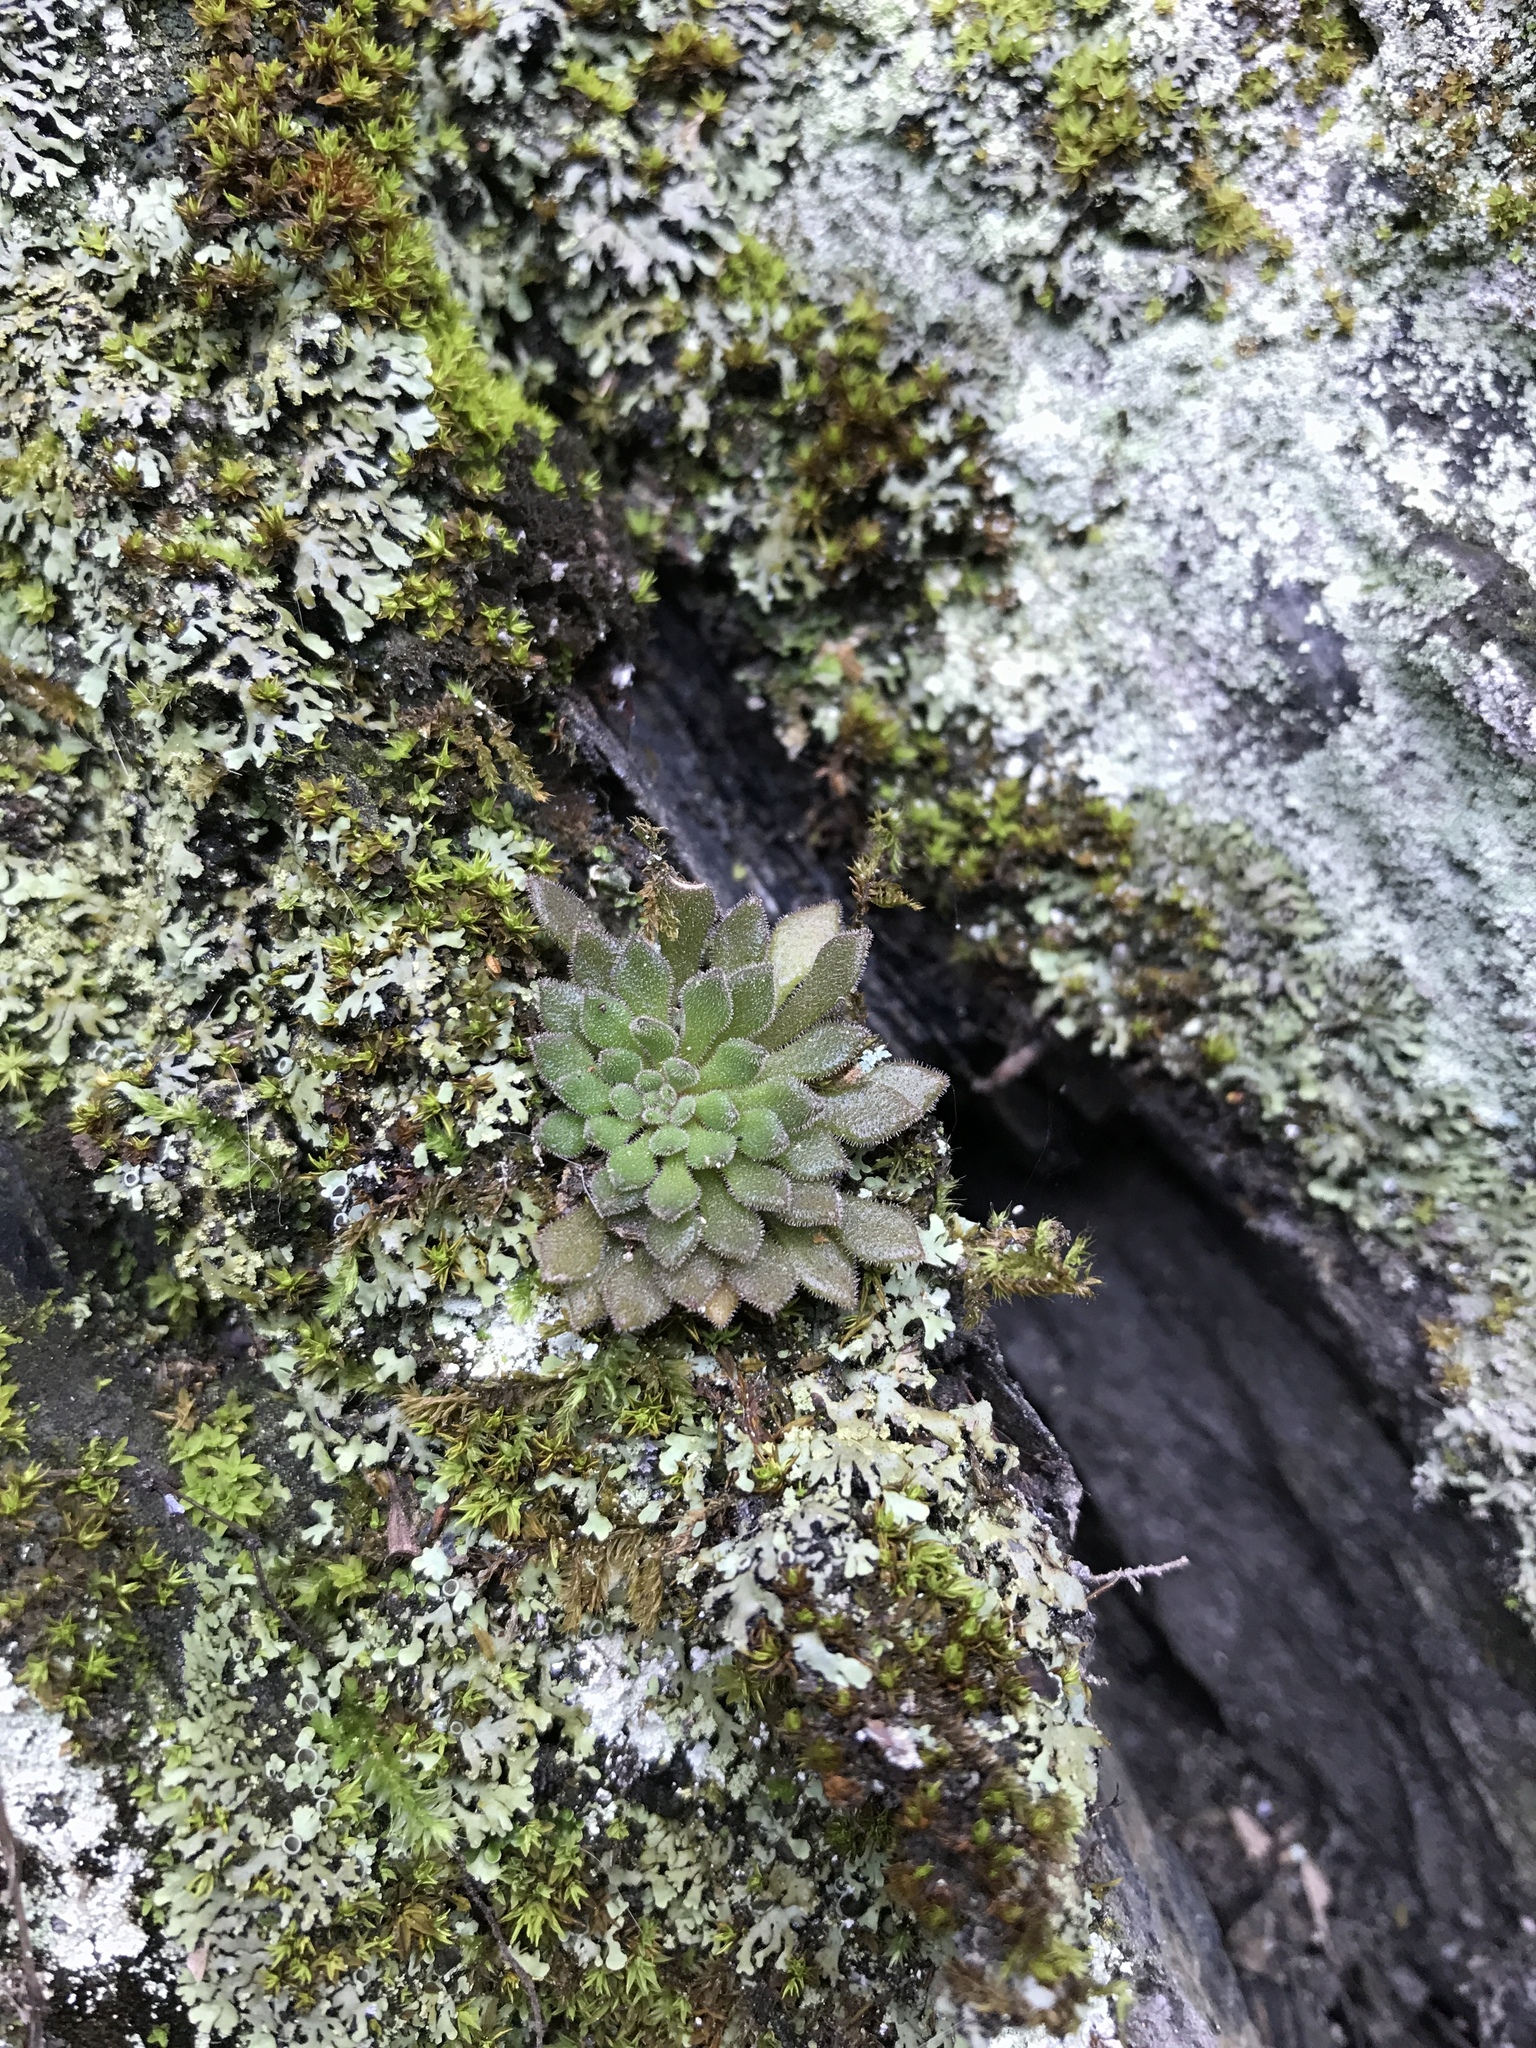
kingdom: Plantae
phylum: Tracheophyta
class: Magnoliopsida
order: Saxifragales
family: Crassulaceae
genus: Sedum
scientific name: Sedum stellariifolium
